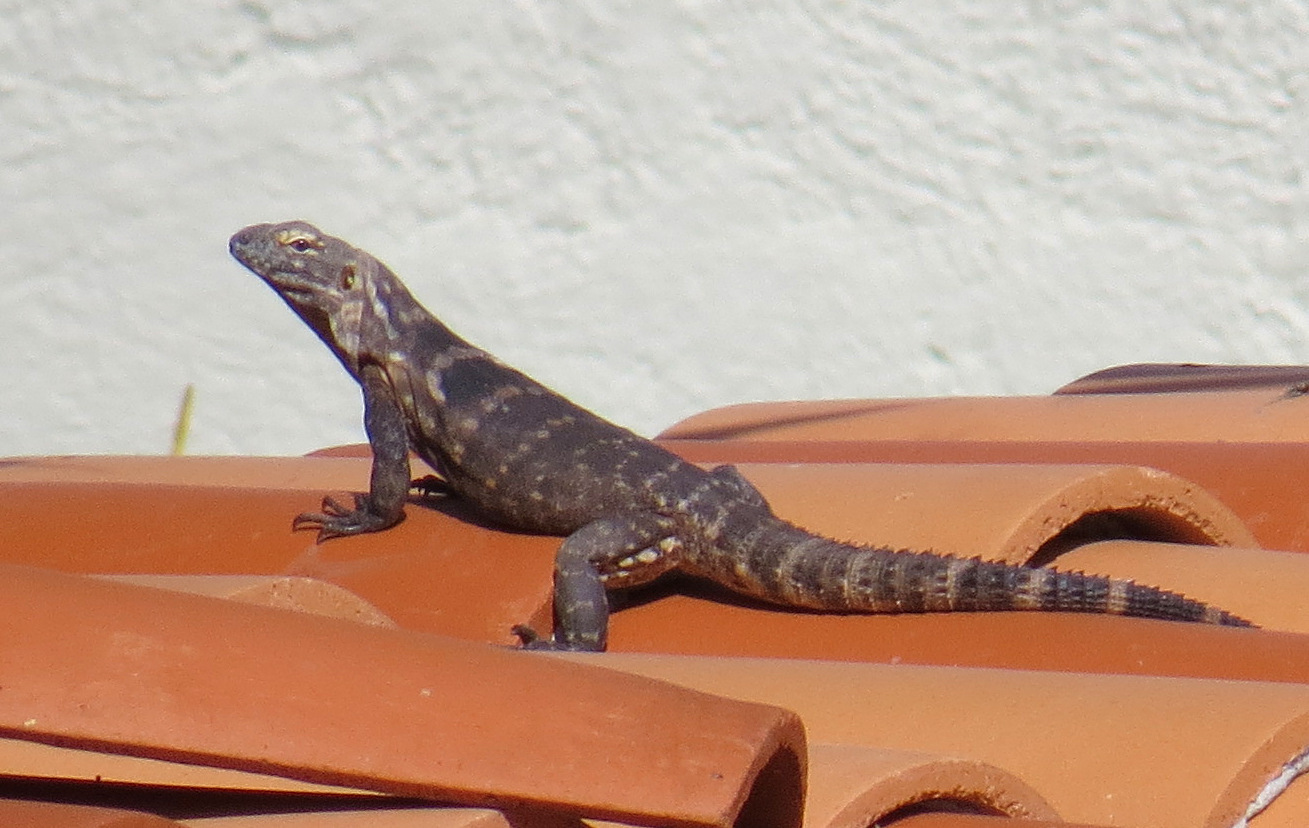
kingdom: Animalia
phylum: Chordata
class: Squamata
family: Iguanidae
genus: Ctenosaura
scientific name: Ctenosaura hemilopha
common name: Baja california spiny- tailed iguana
